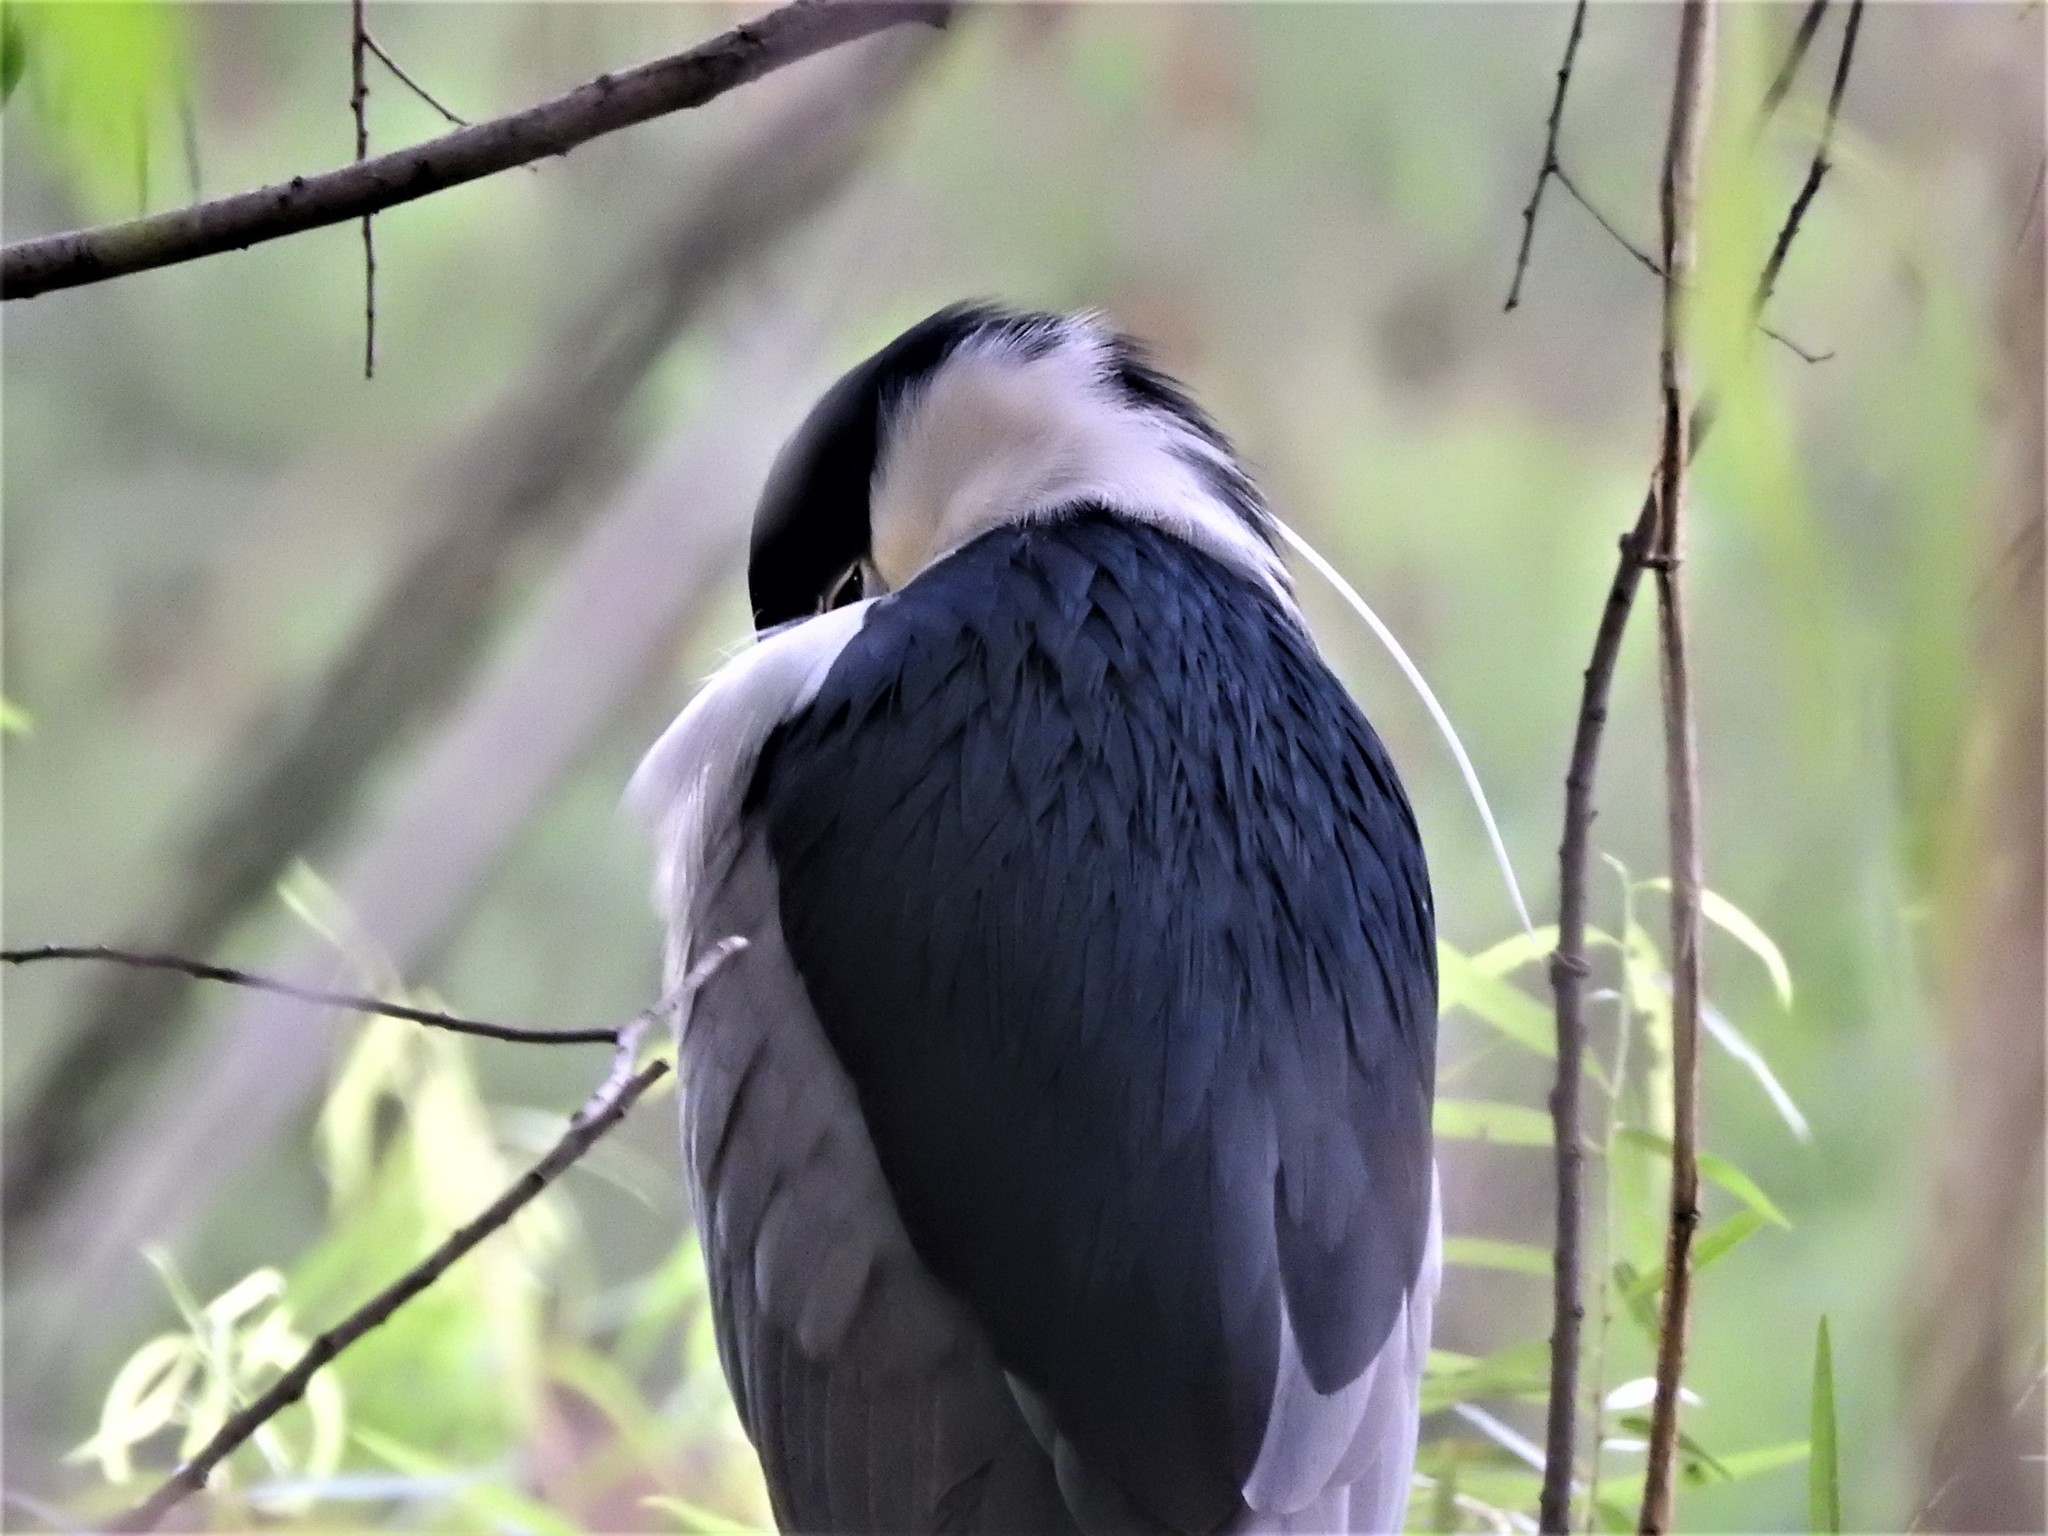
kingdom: Animalia
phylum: Chordata
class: Aves
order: Pelecaniformes
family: Ardeidae
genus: Nycticorax
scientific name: Nycticorax nycticorax
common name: Black-crowned night heron
